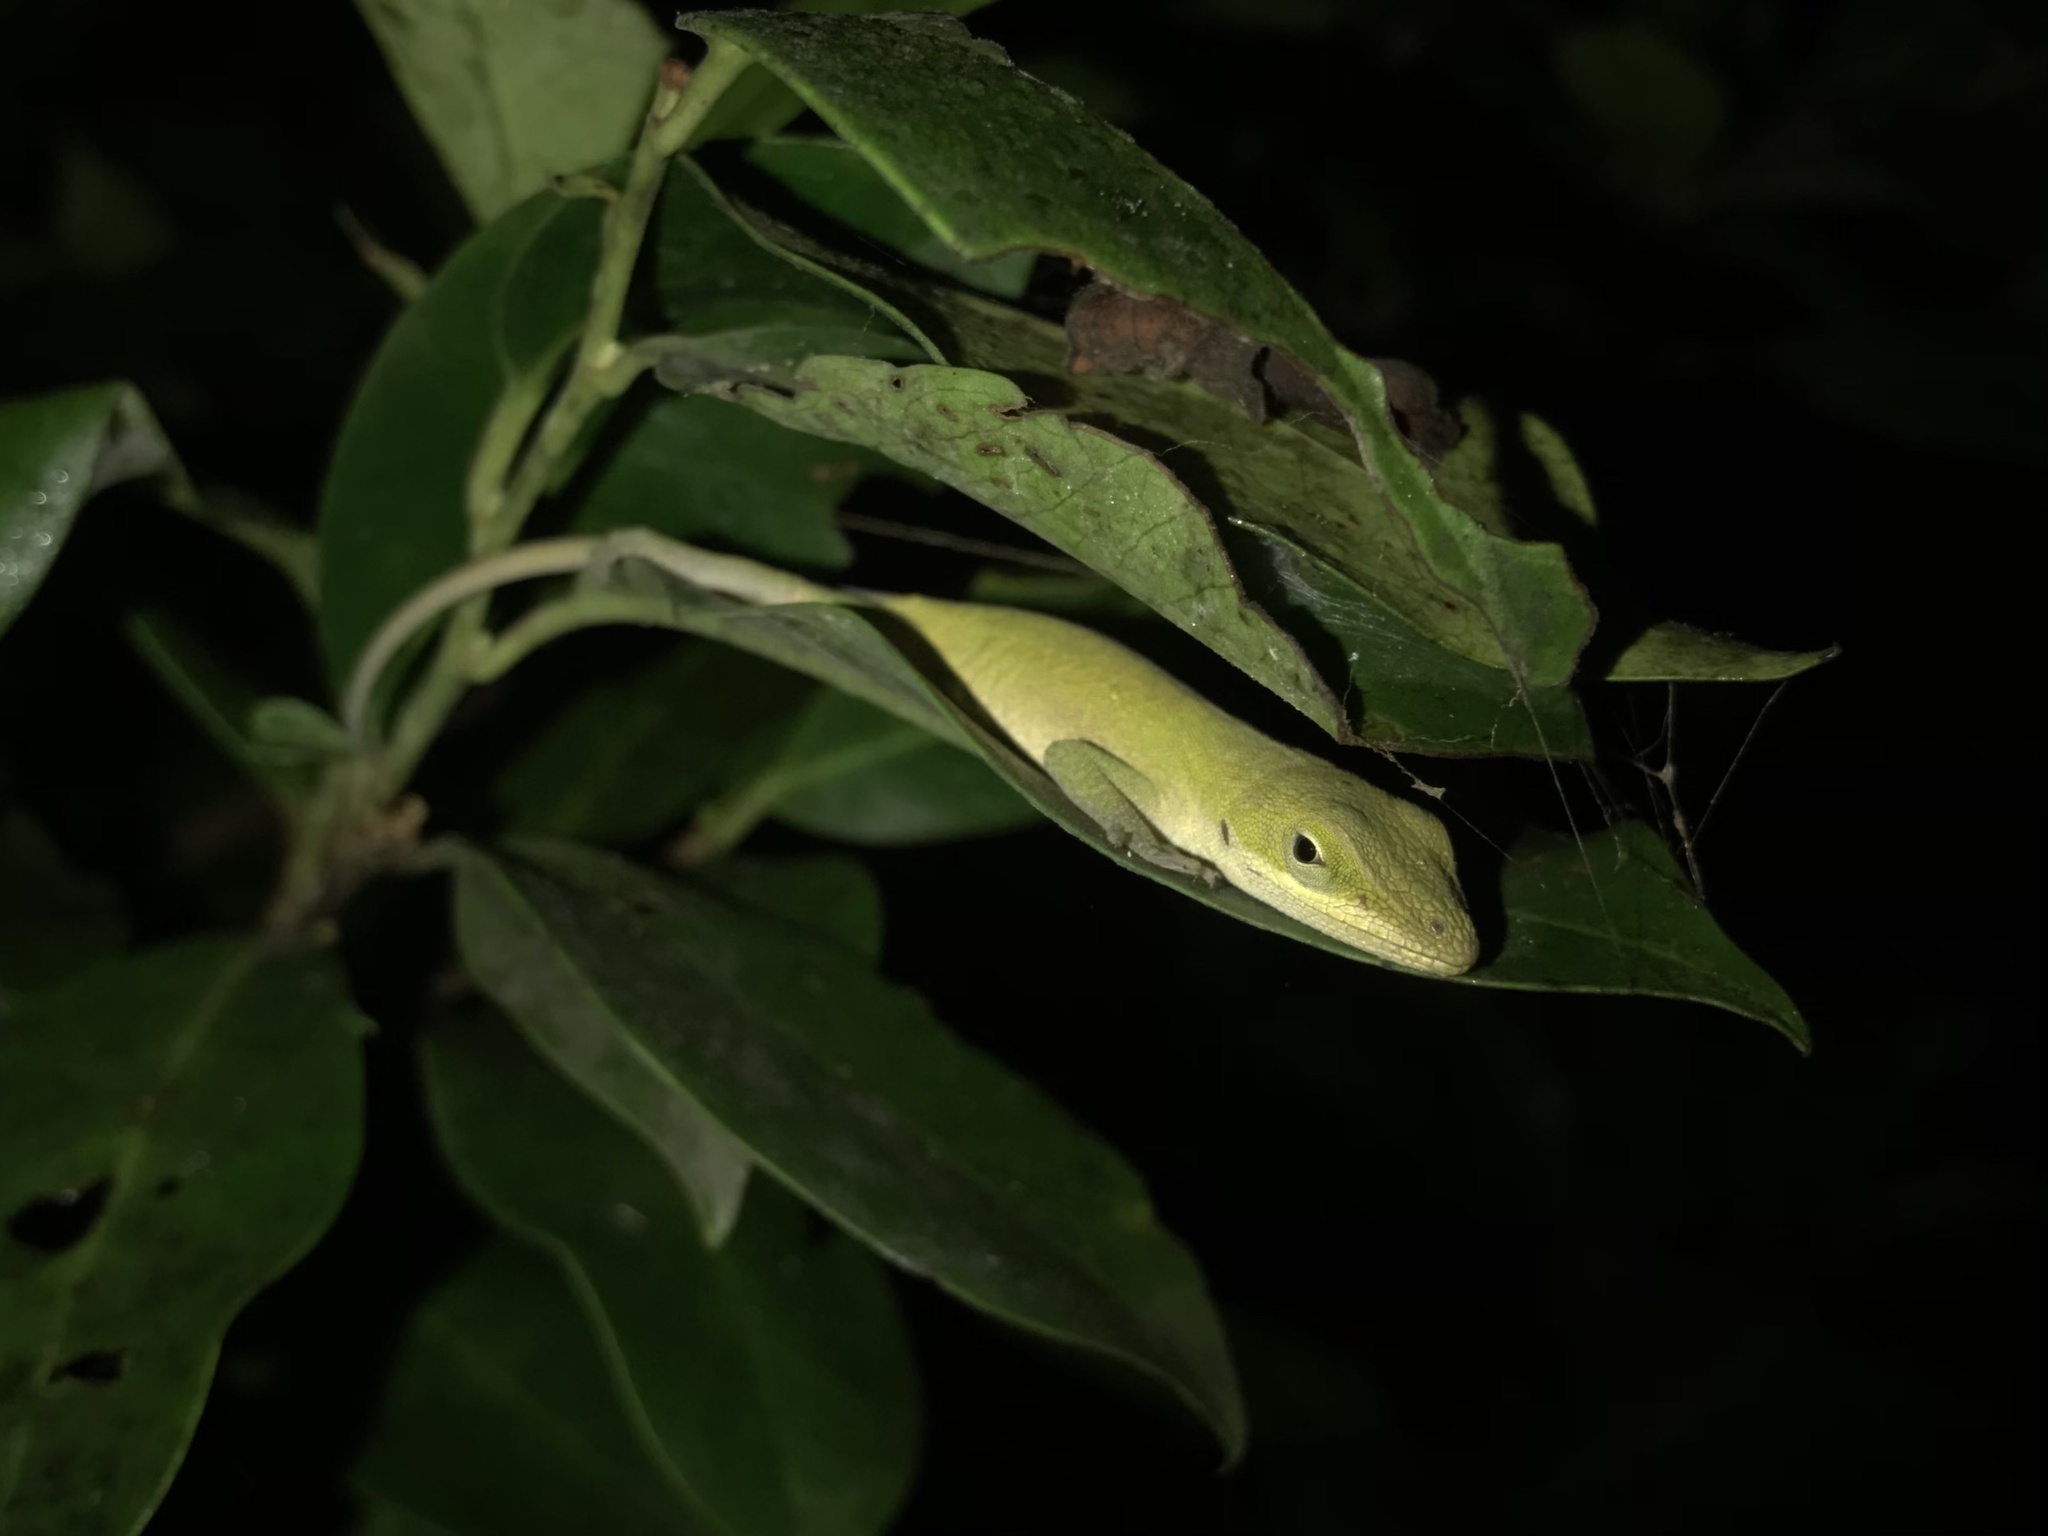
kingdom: Animalia
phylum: Chordata
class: Squamata
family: Dactyloidae
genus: Anolis
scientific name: Anolis carolinensis
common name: Green anole
